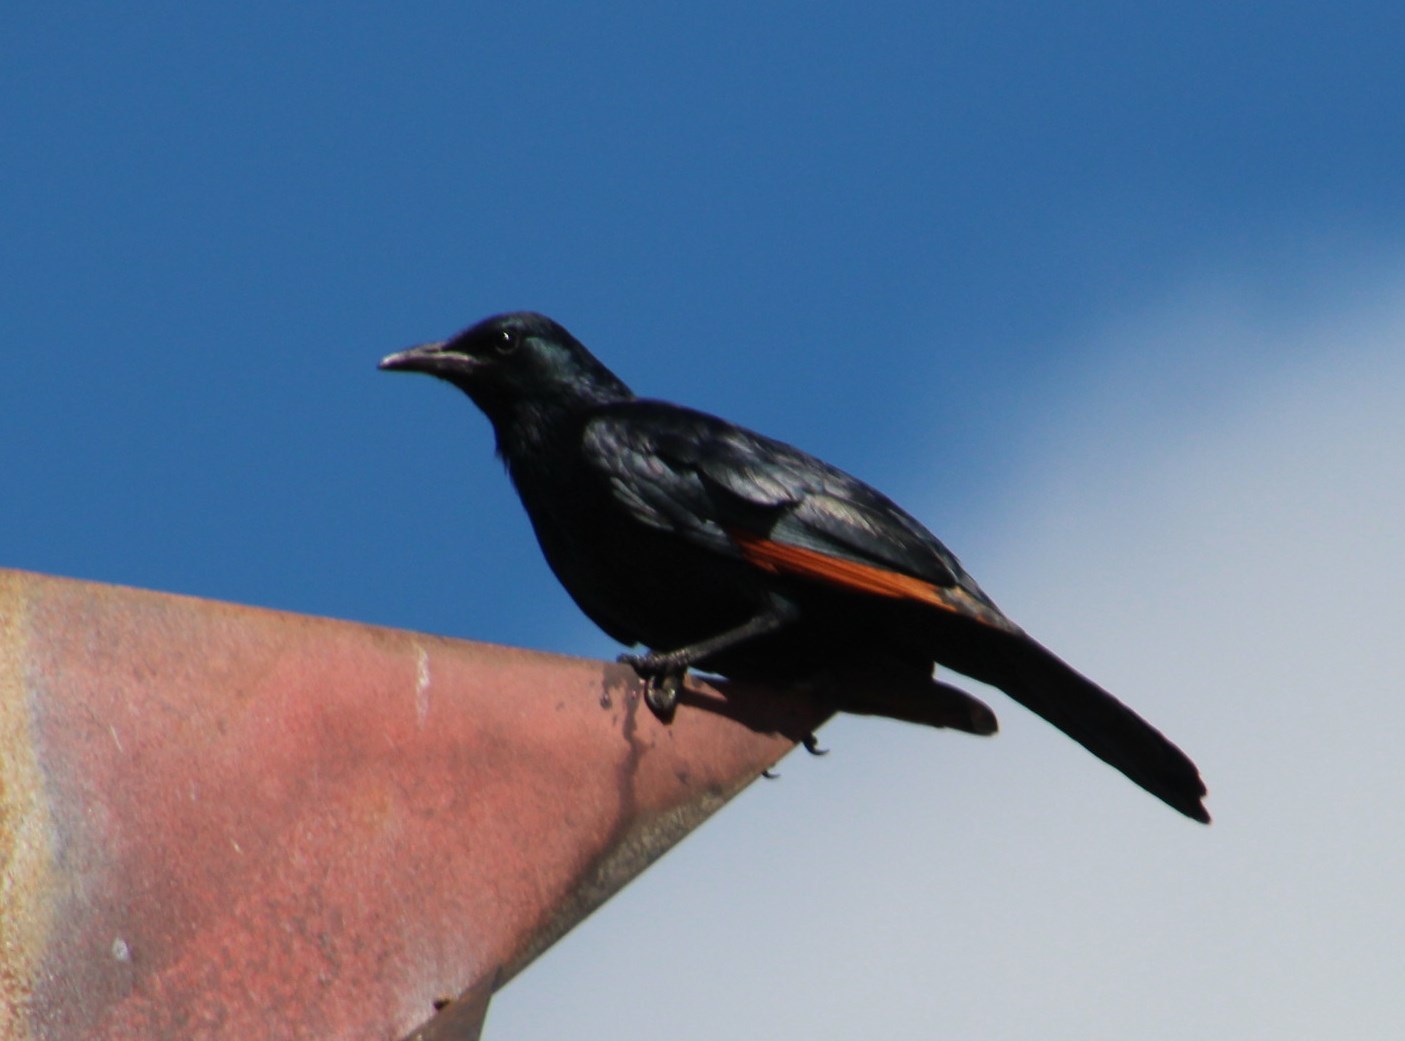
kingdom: Animalia
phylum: Chordata
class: Aves
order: Passeriformes
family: Sturnidae
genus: Onychognathus
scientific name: Onychognathus morio
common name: Red-winged starling
